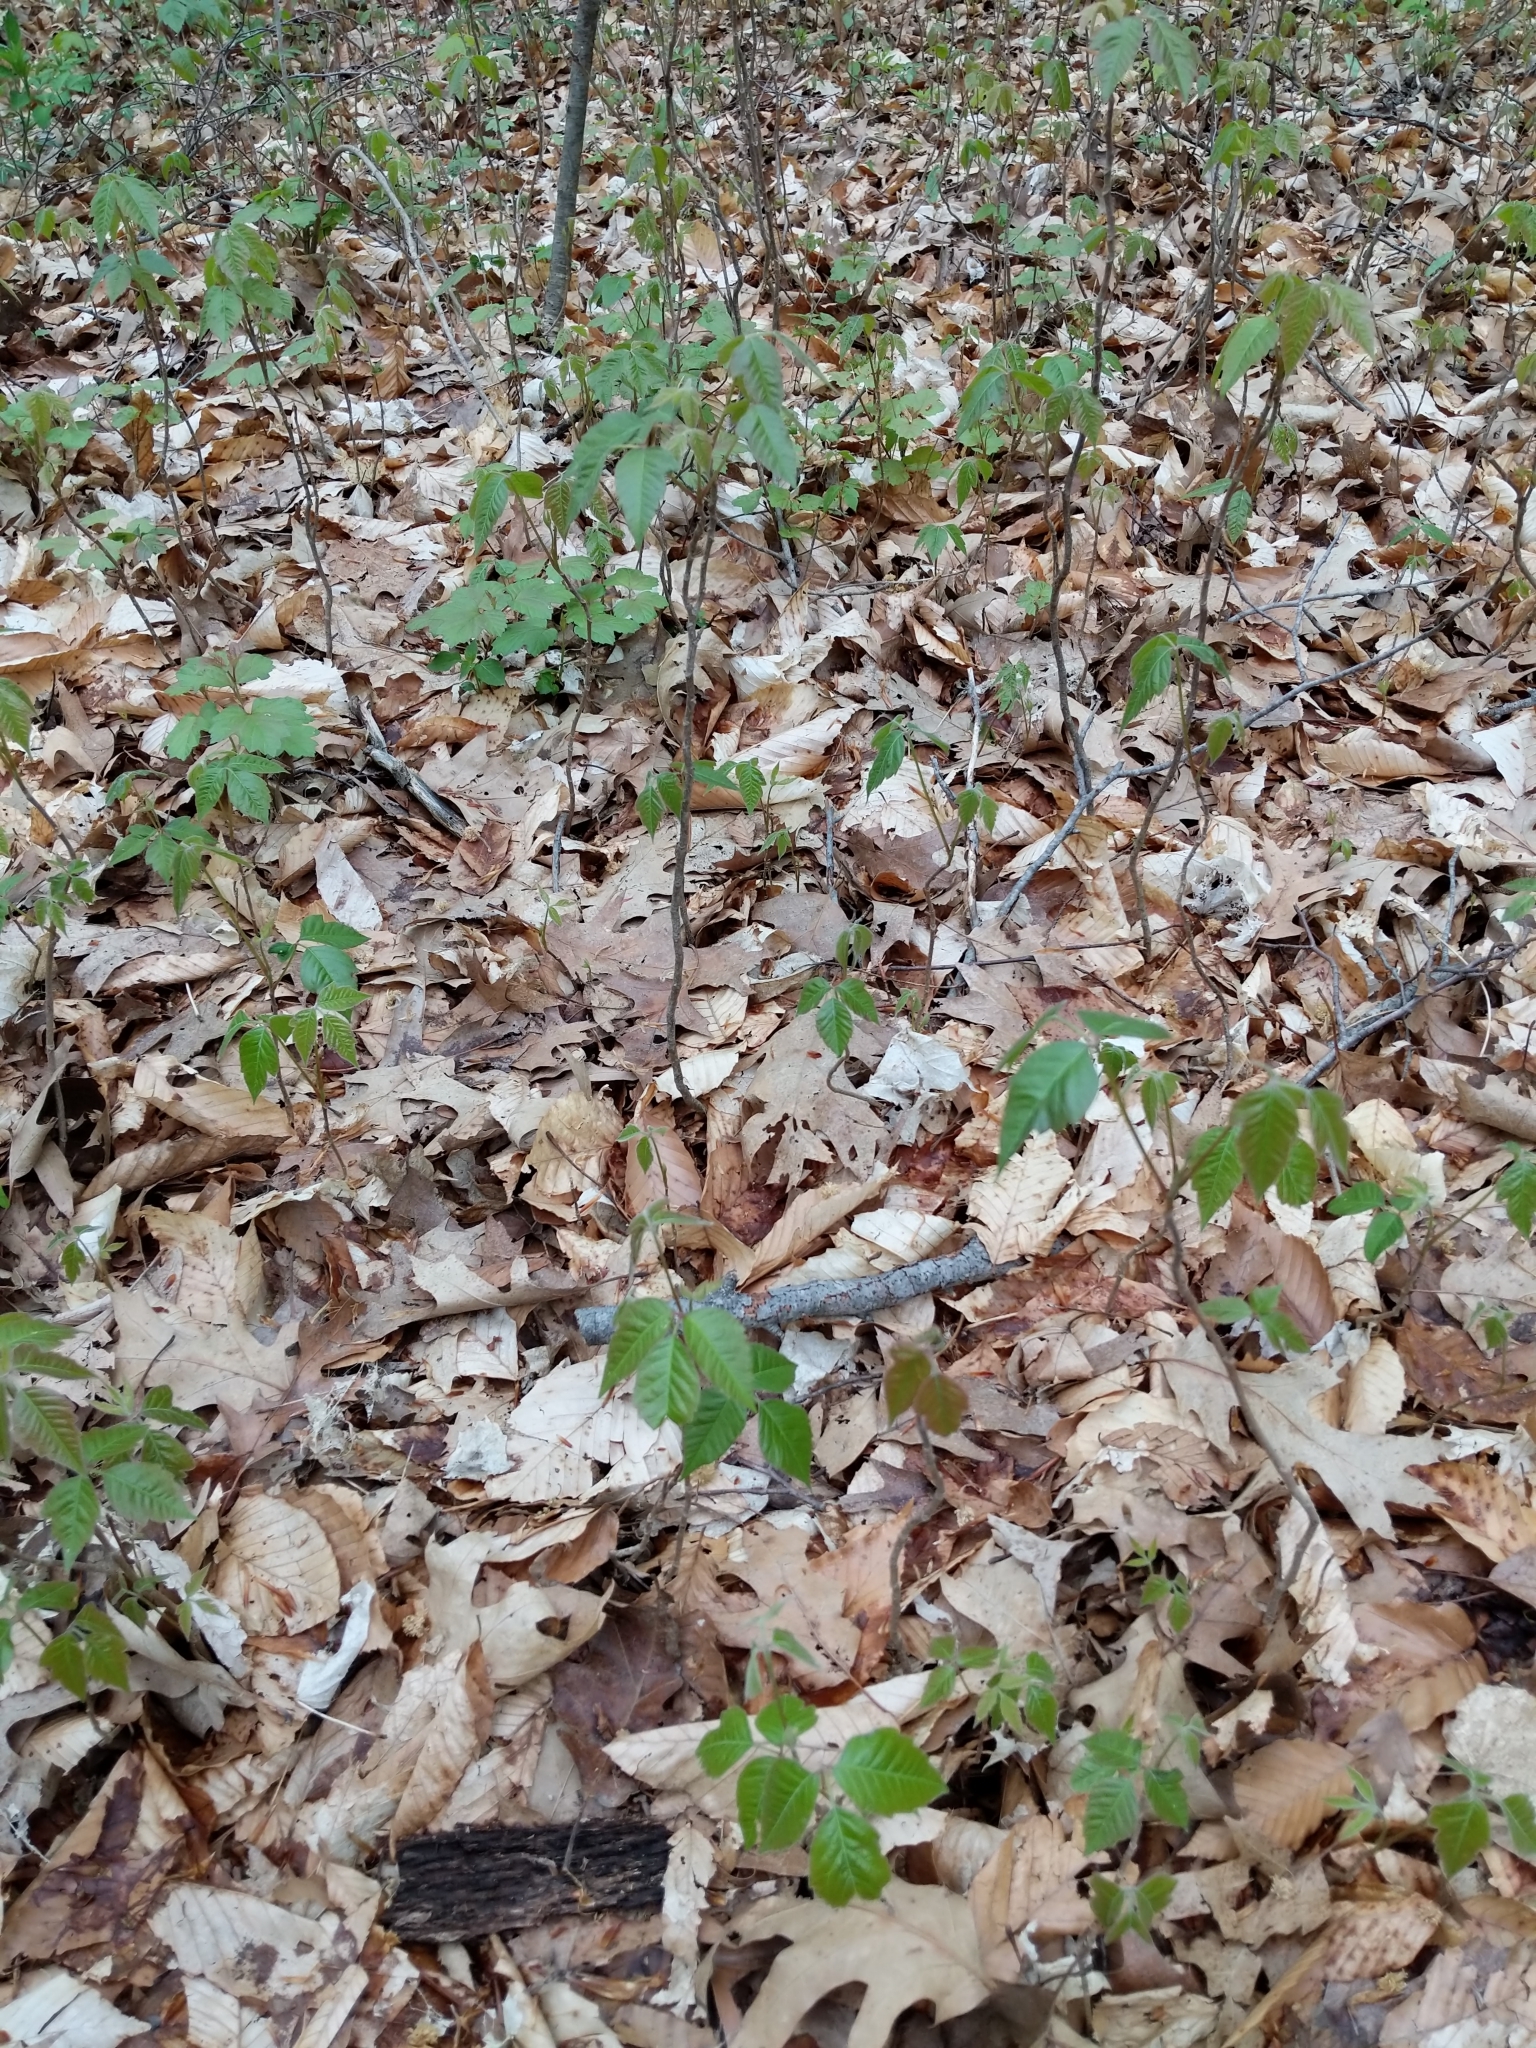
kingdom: Plantae
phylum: Tracheophyta
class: Magnoliopsida
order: Sapindales
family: Anacardiaceae
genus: Toxicodendron
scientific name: Toxicodendron radicans
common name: Poison ivy
